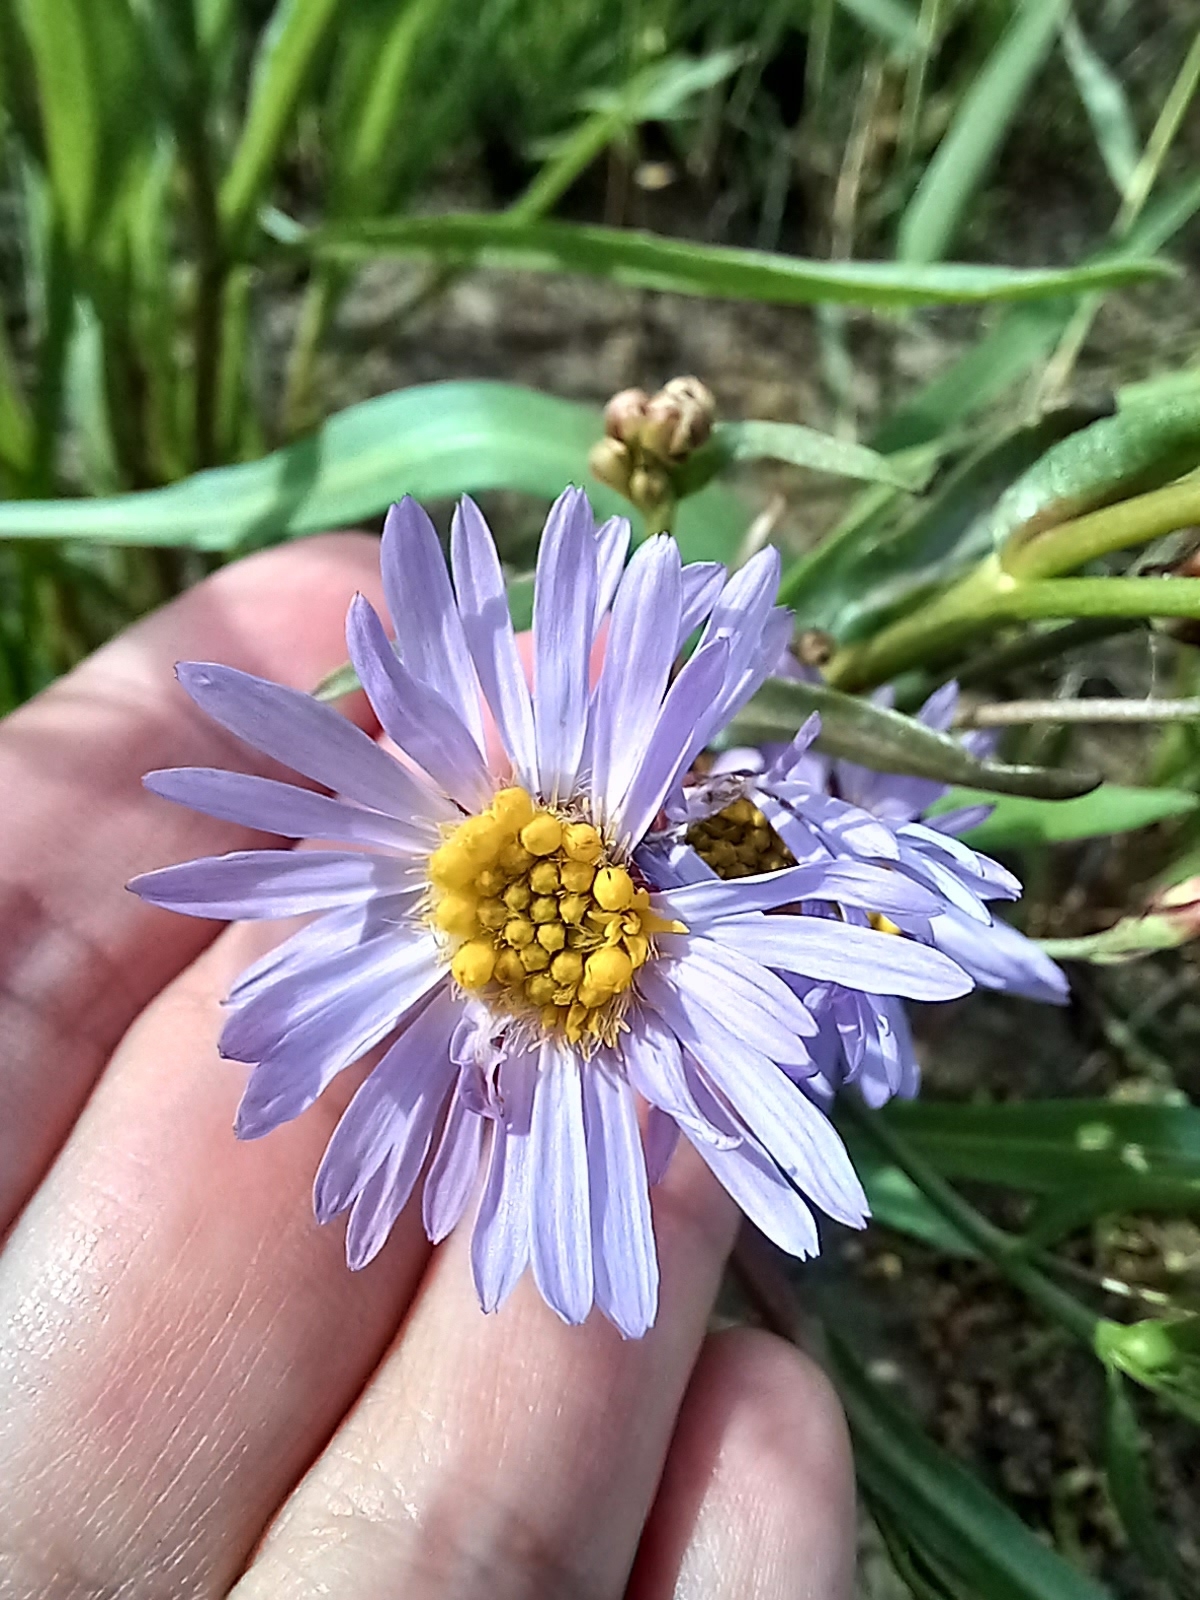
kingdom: Plantae
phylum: Tracheophyta
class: Magnoliopsida
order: Asterales
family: Asteraceae
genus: Tripolium
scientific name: Tripolium pannonicum
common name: Sea aster
